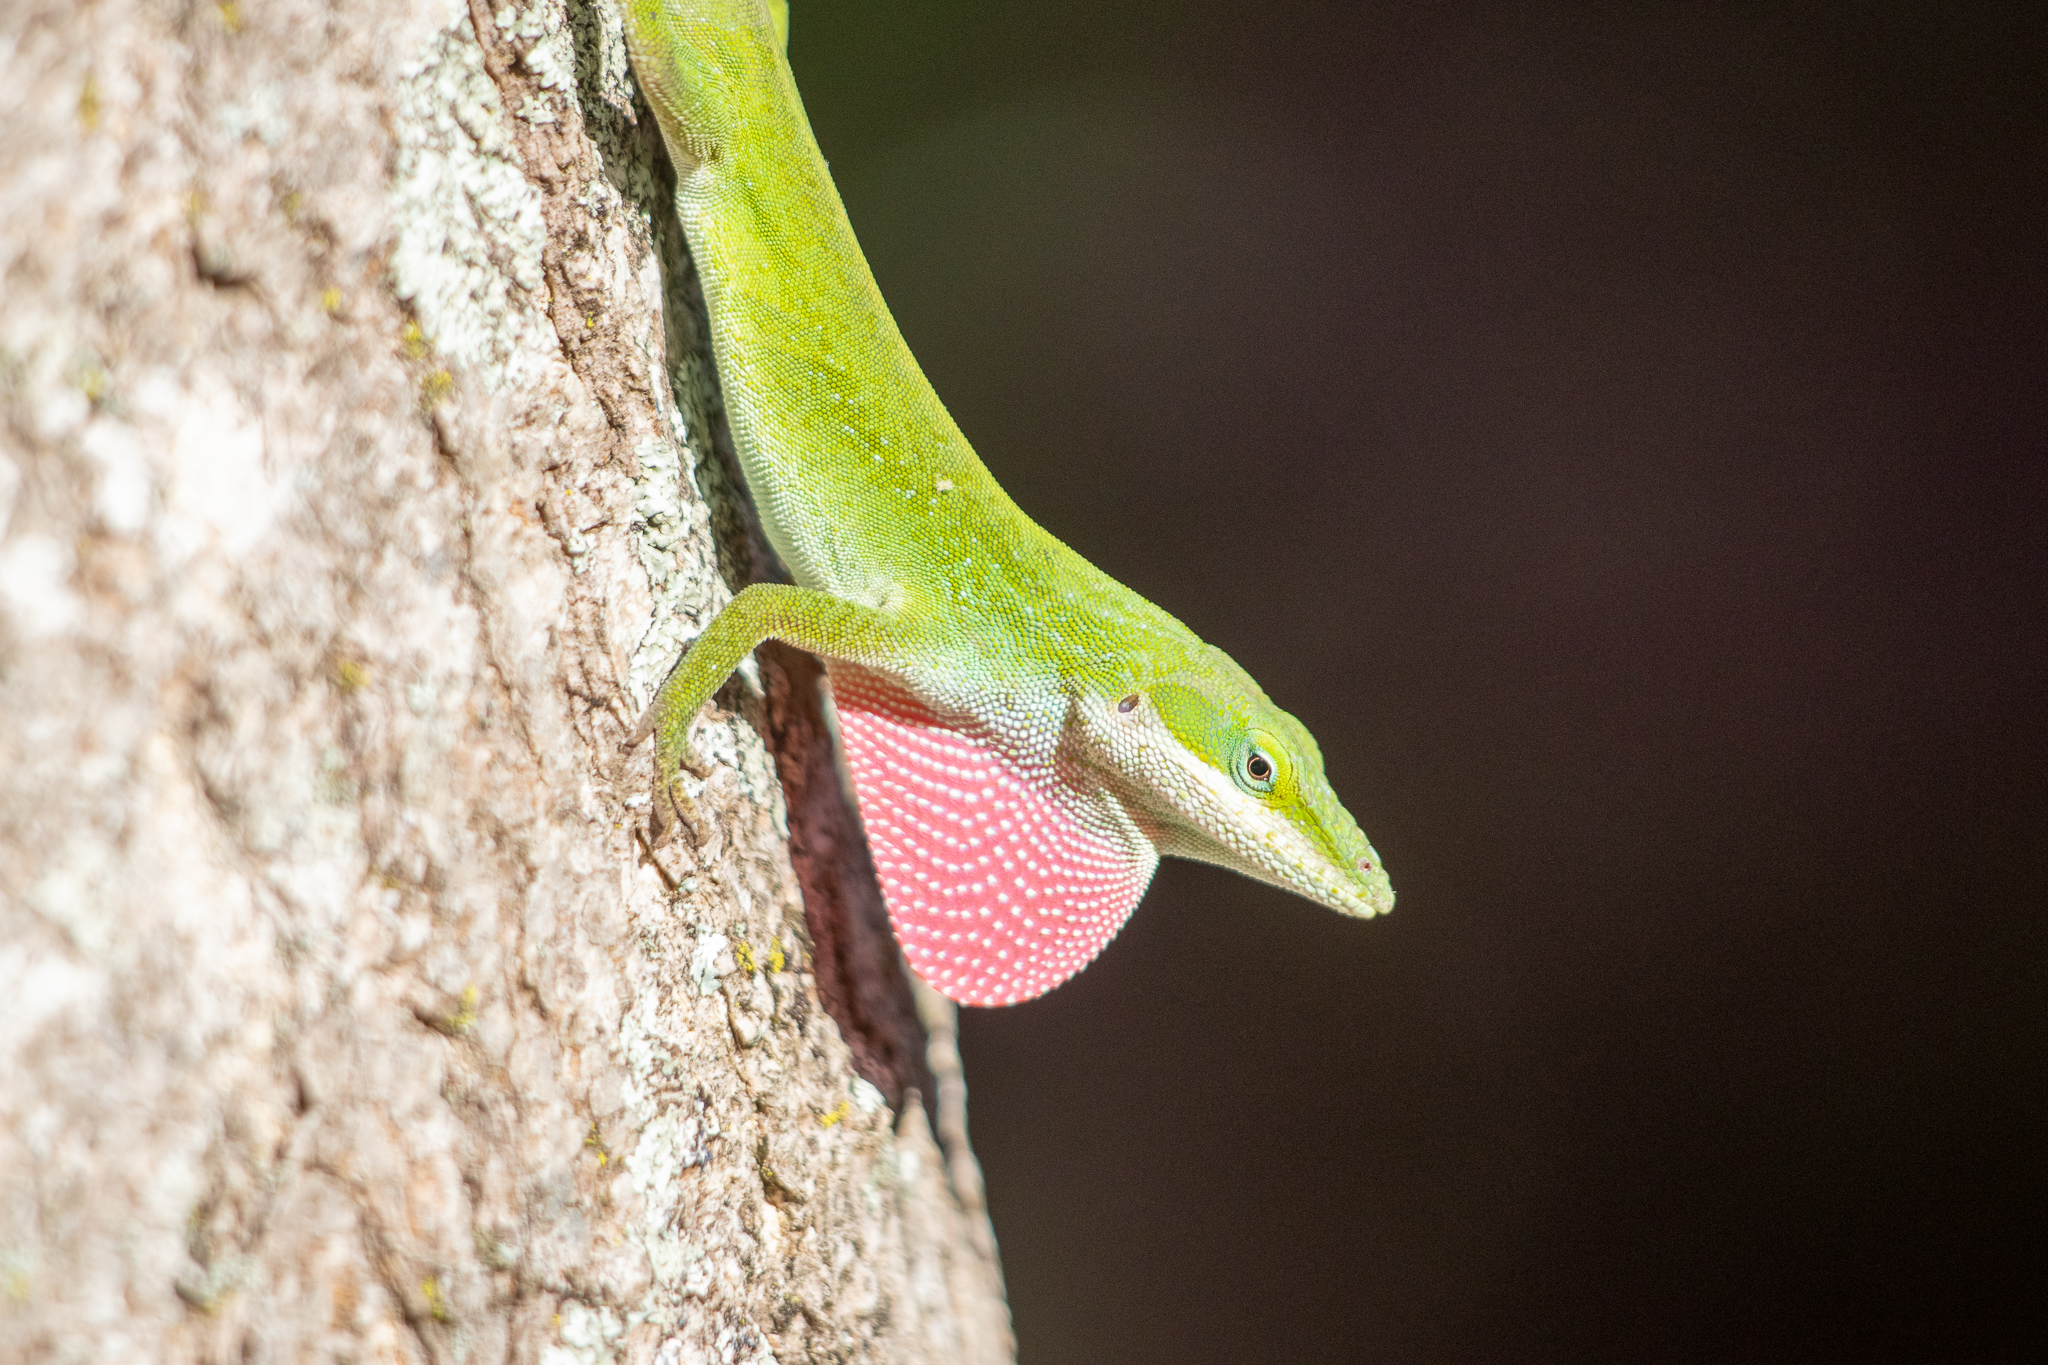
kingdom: Animalia
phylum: Chordata
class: Squamata
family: Dactyloidae
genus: Anolis
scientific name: Anolis carolinensis
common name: Green anole
